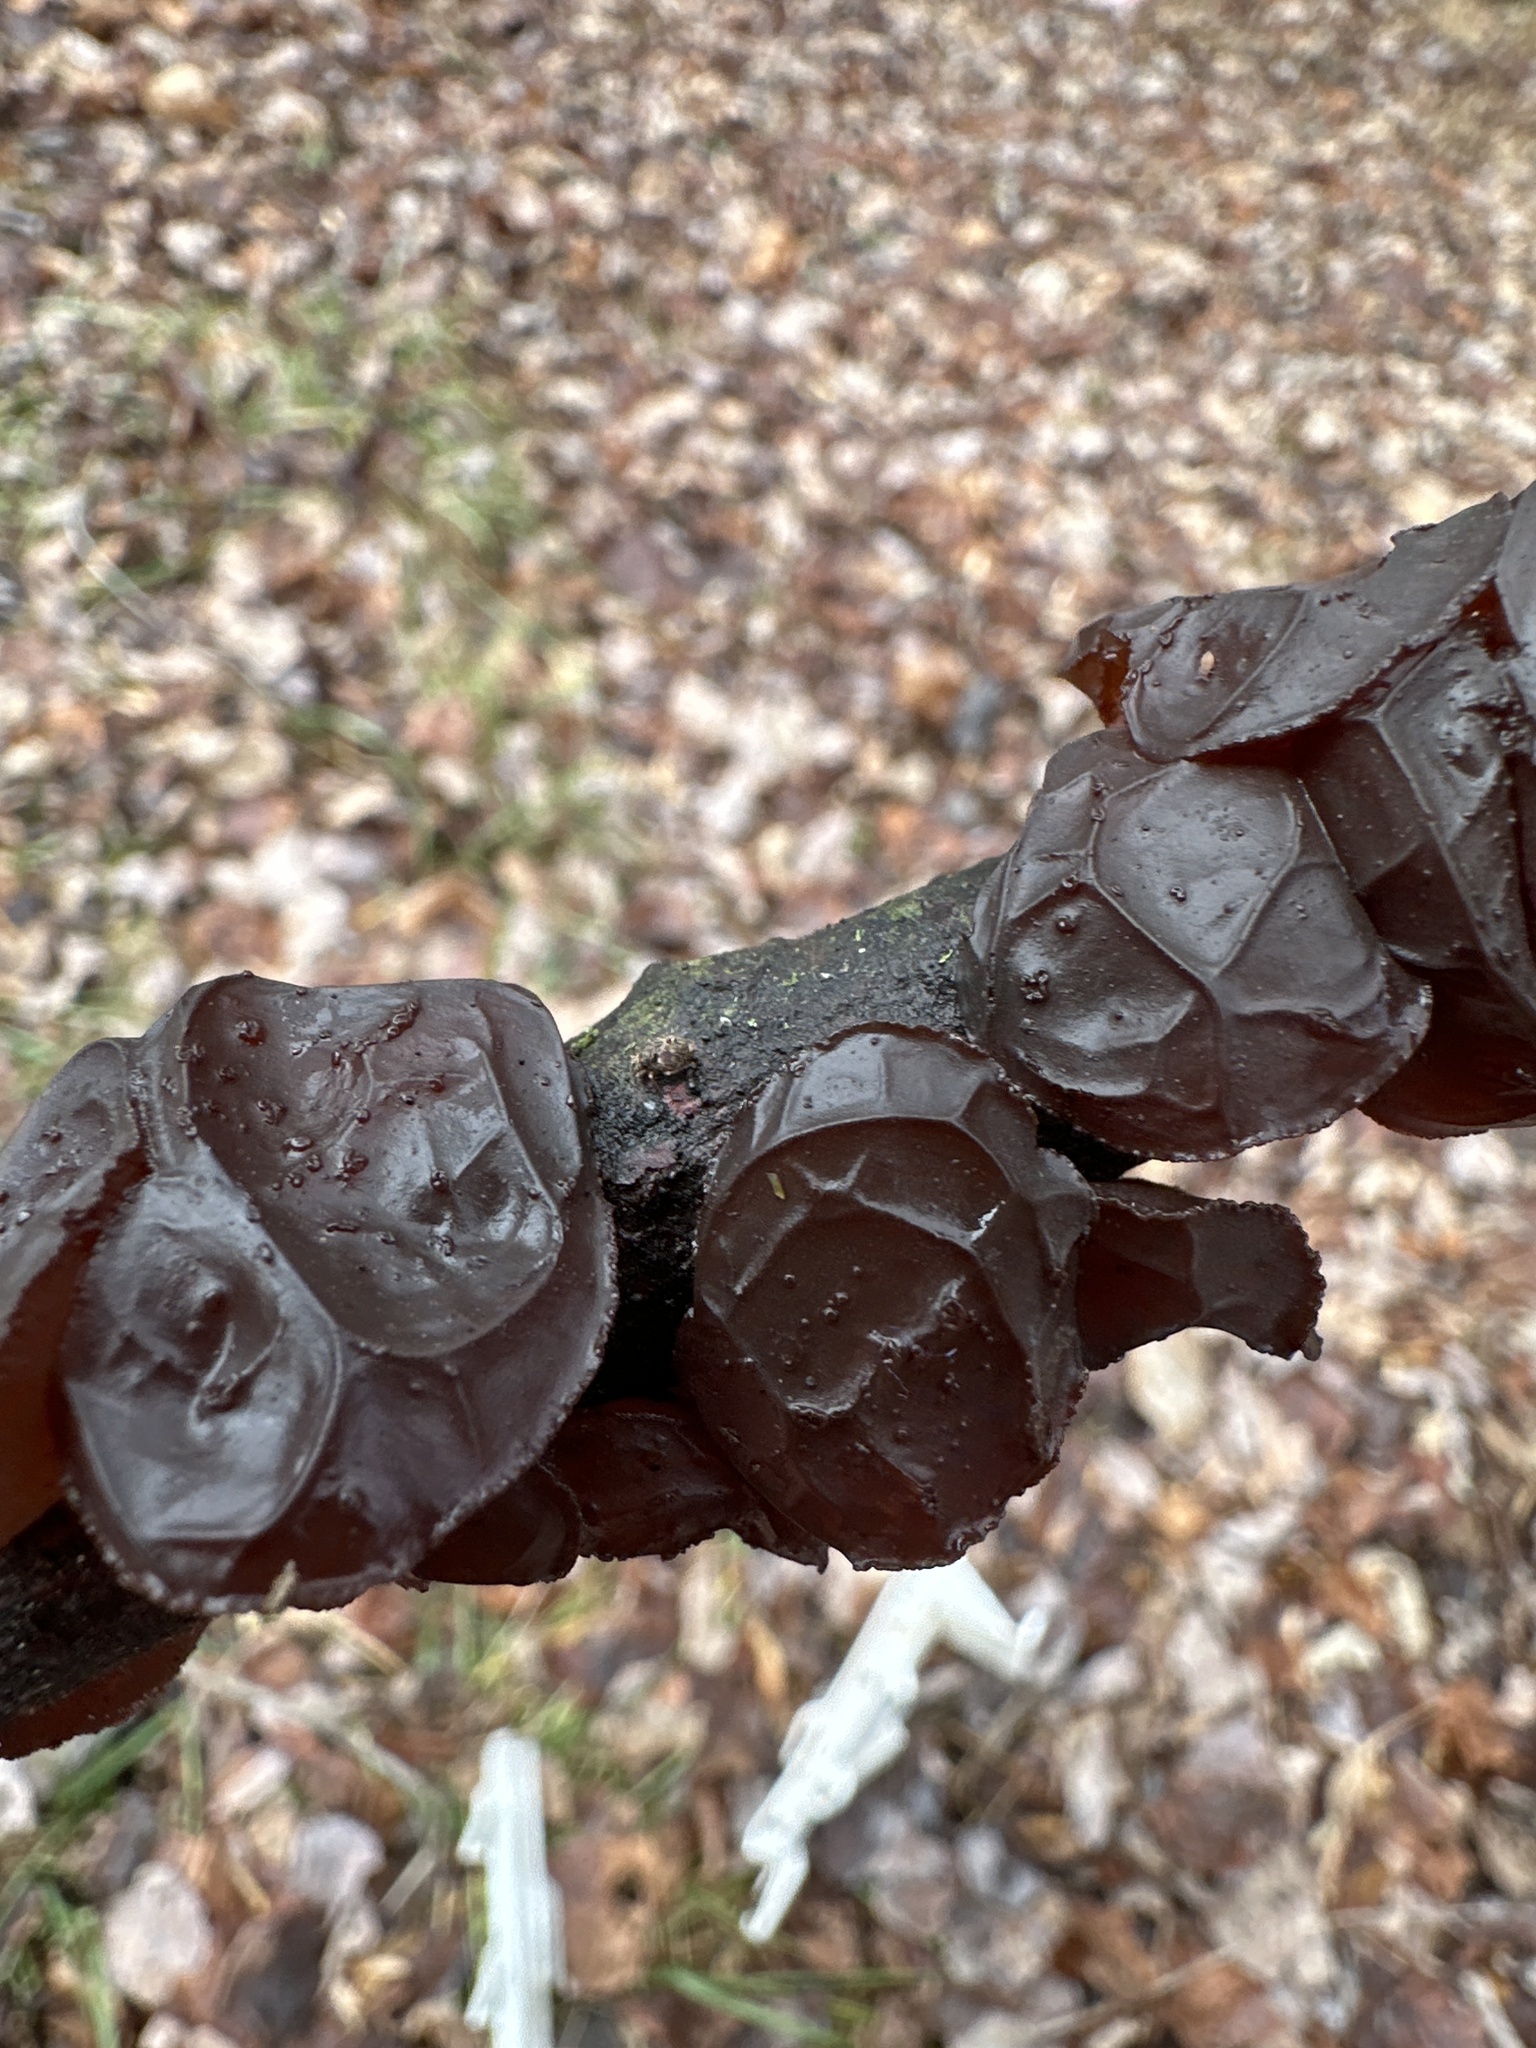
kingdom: Fungi
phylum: Basidiomycota
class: Agaricomycetes
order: Auriculariales
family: Auriculariaceae
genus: Exidia
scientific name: Exidia
